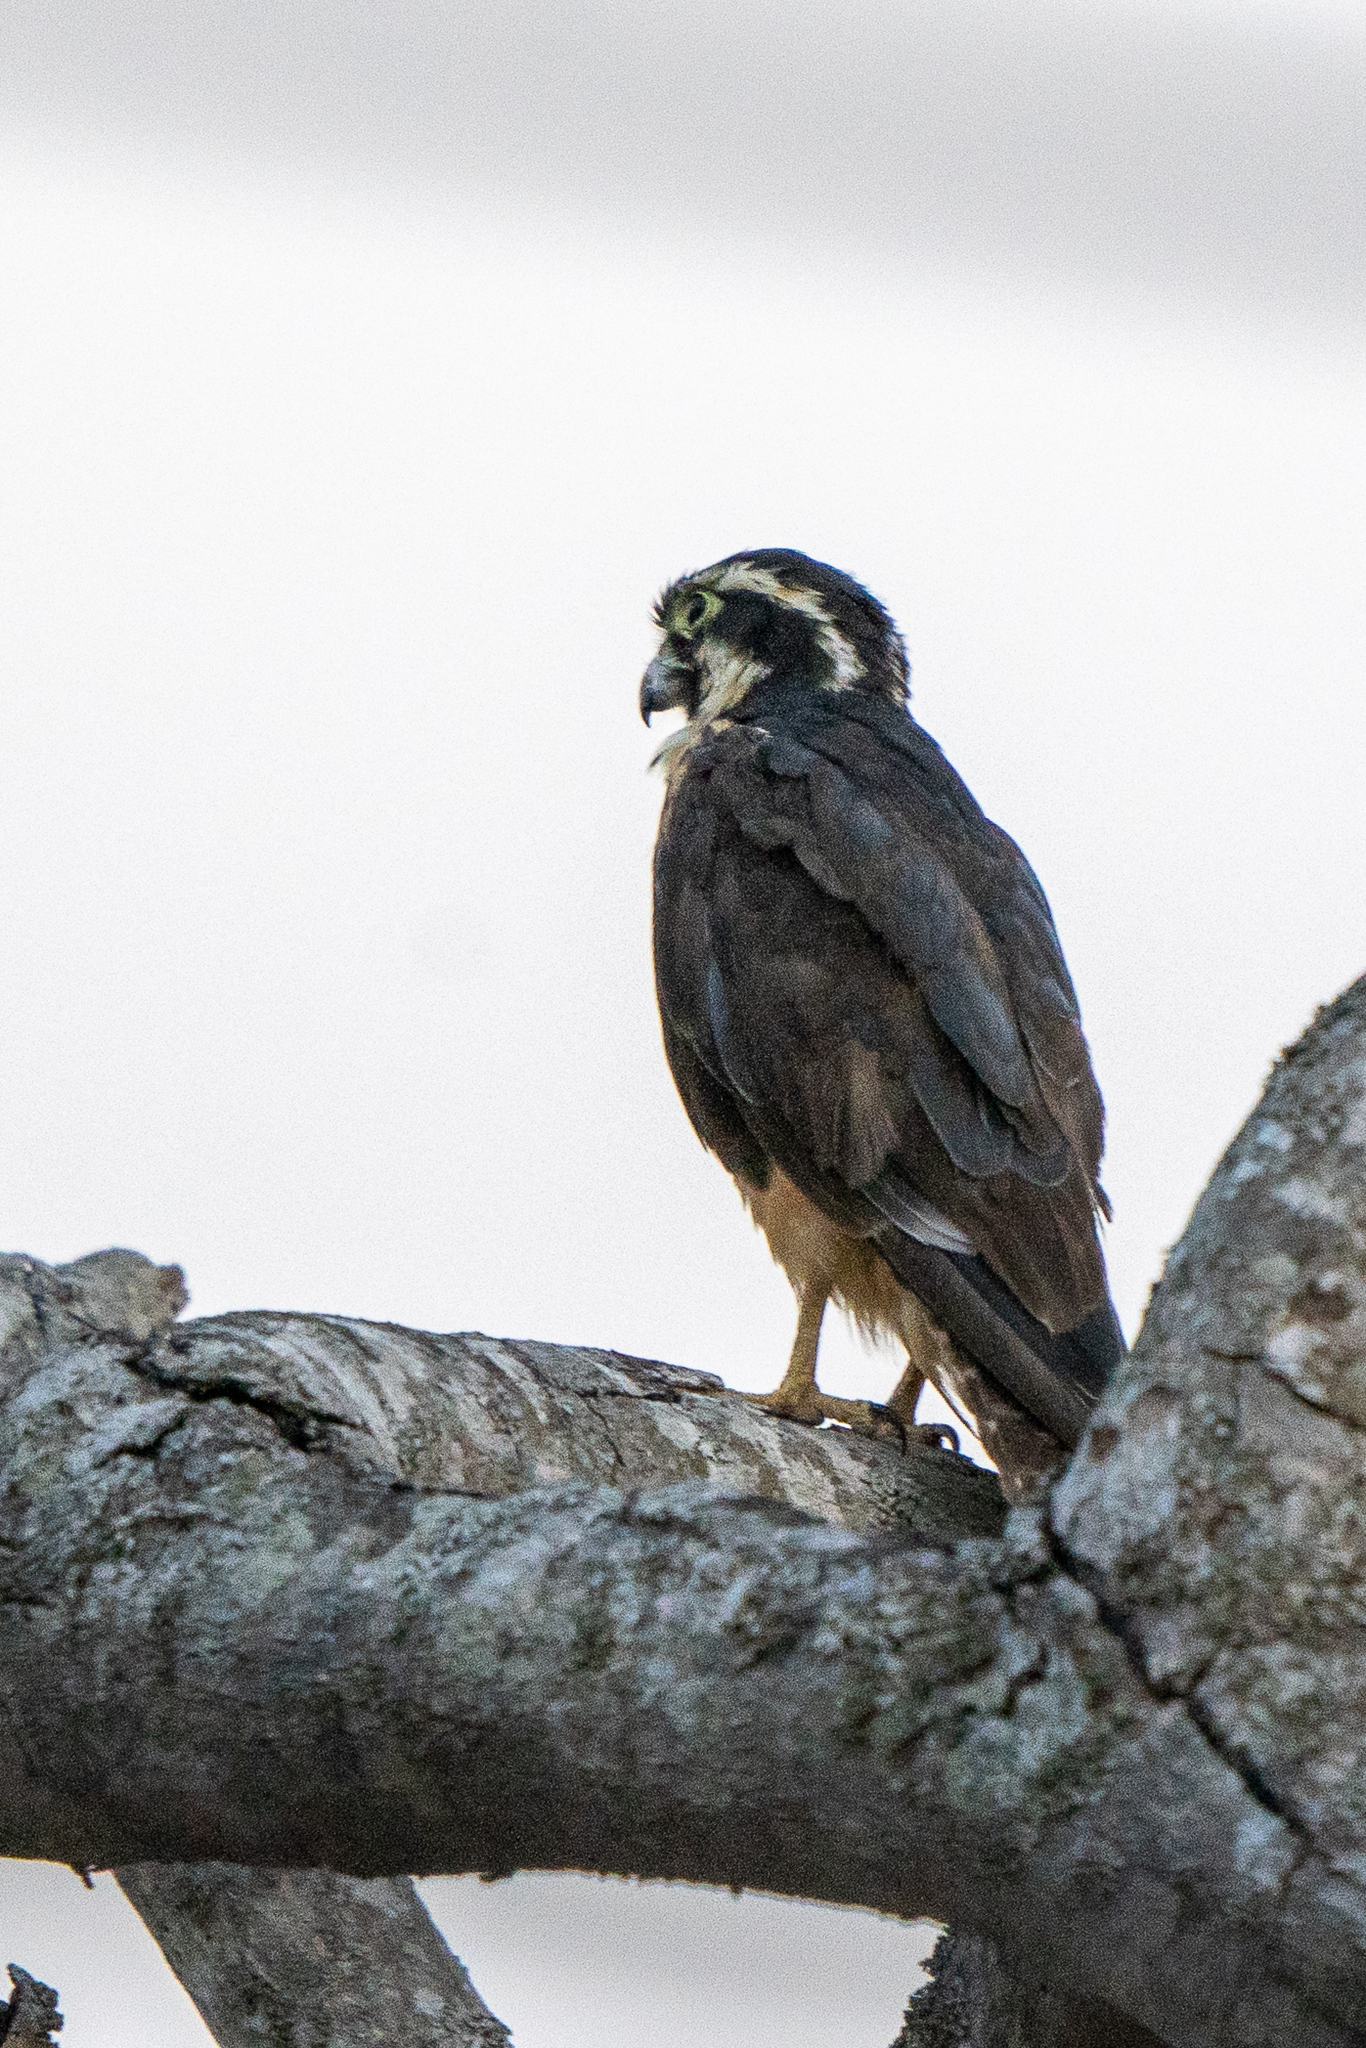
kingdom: Animalia
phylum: Chordata
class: Aves
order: Falconiformes
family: Falconidae
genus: Falco
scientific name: Falco femoralis
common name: Aplomado falcon
